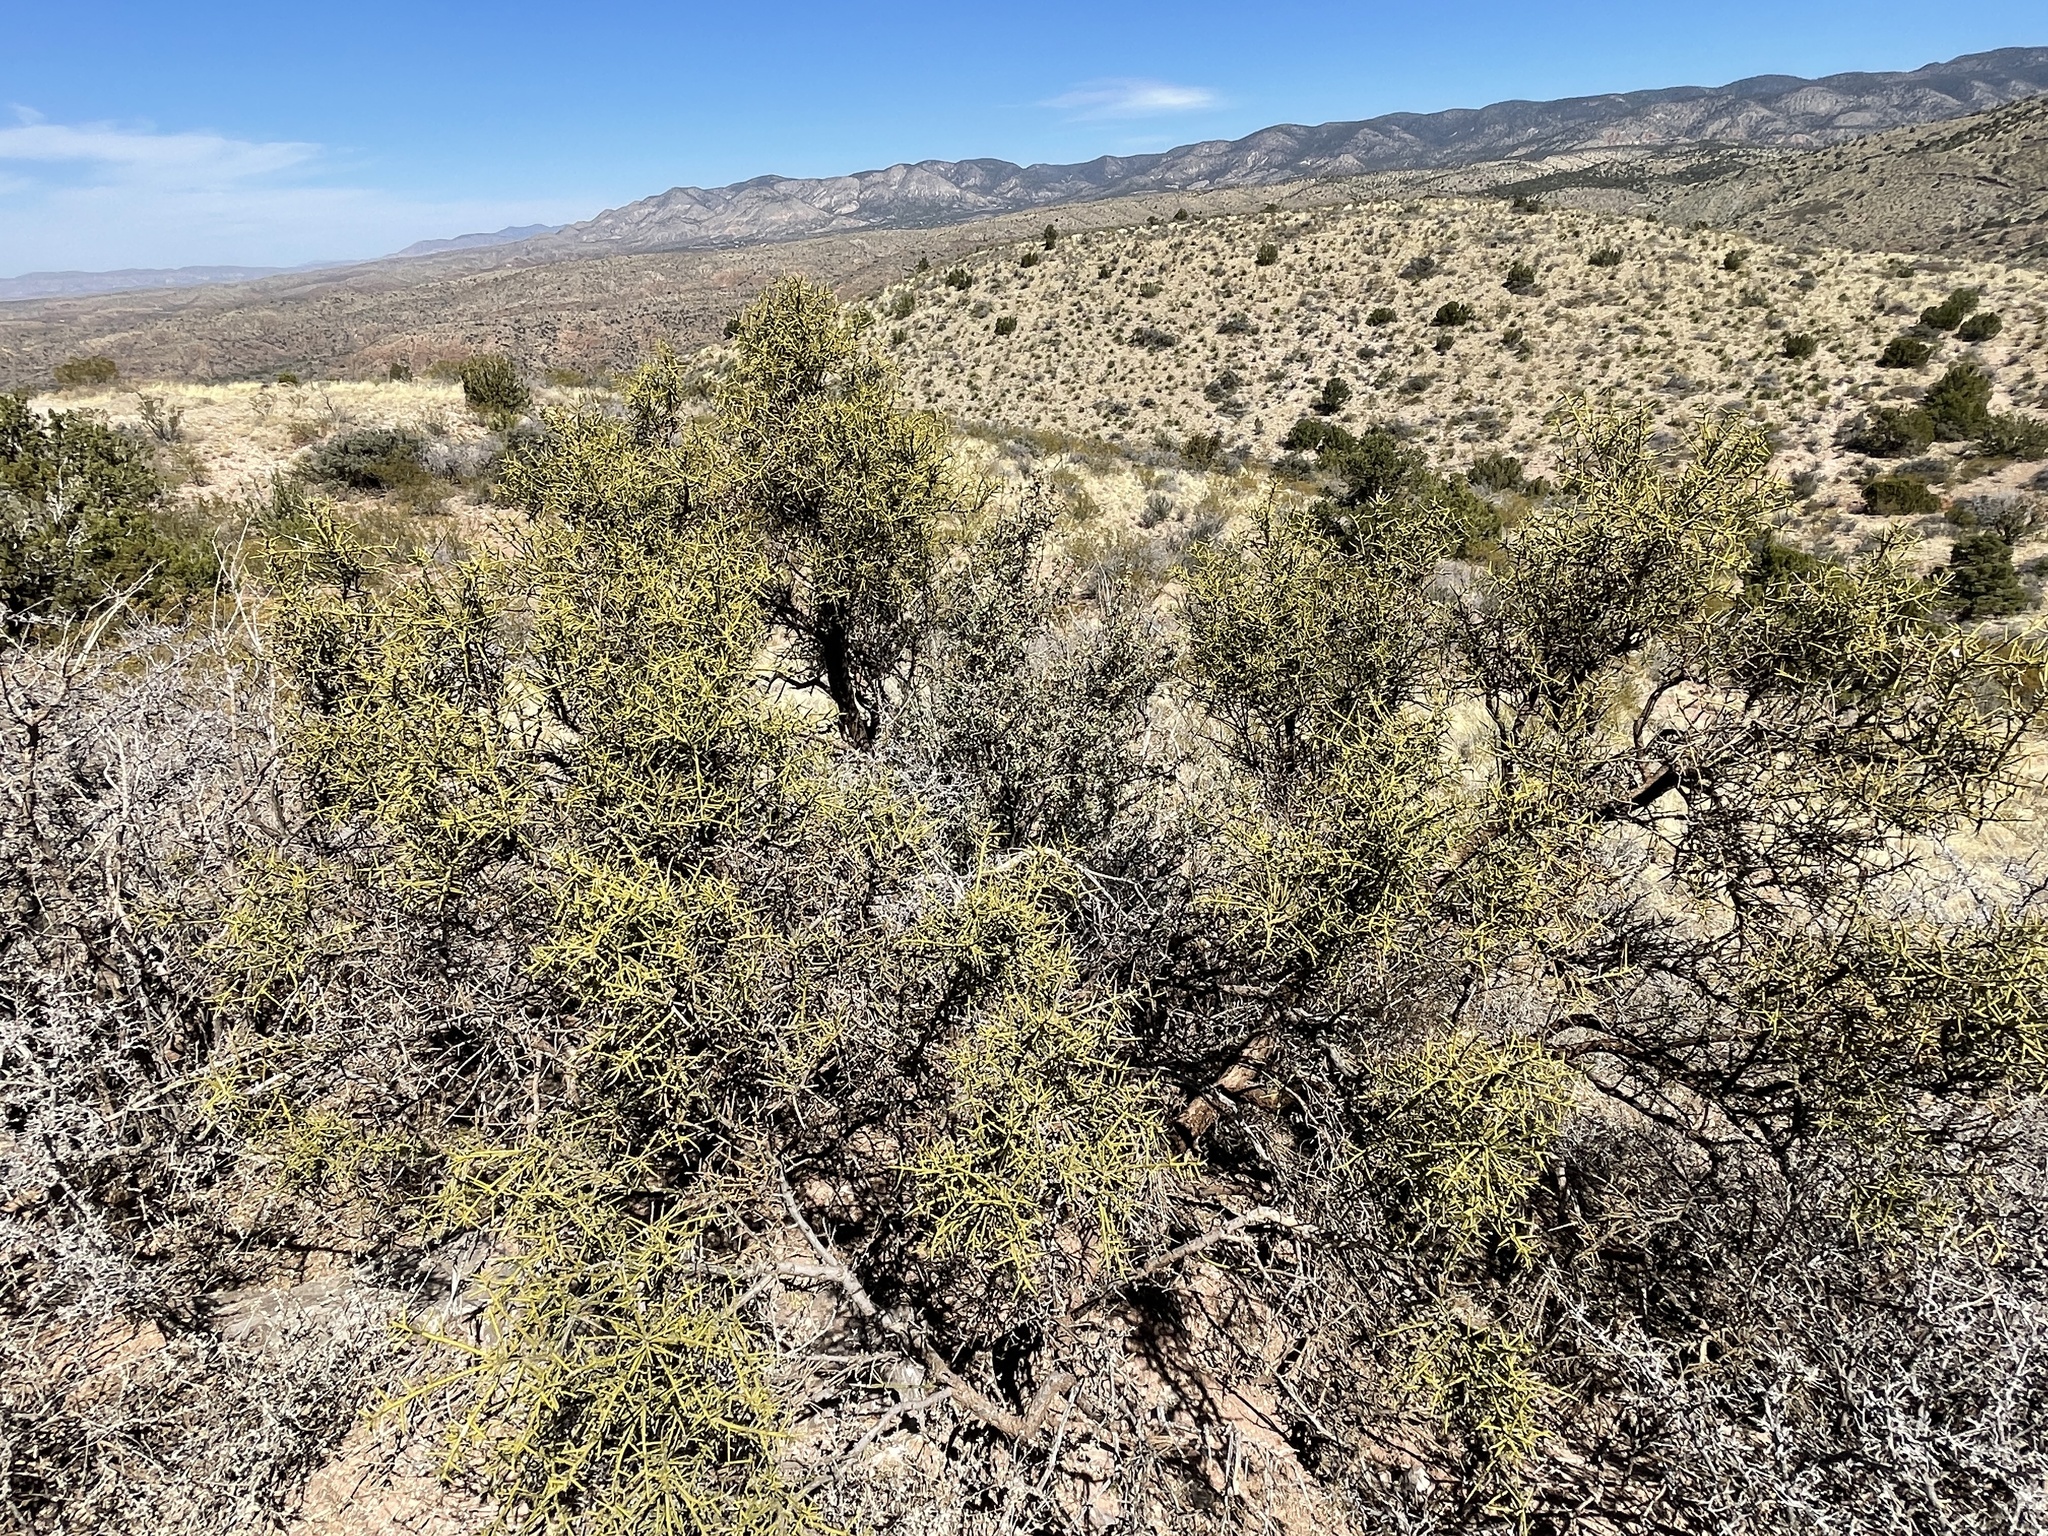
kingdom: Plantae
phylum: Tracheophyta
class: Magnoliopsida
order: Brassicales
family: Koeberliniaceae
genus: Koeberlinia
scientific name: Koeberlinia spinosa
